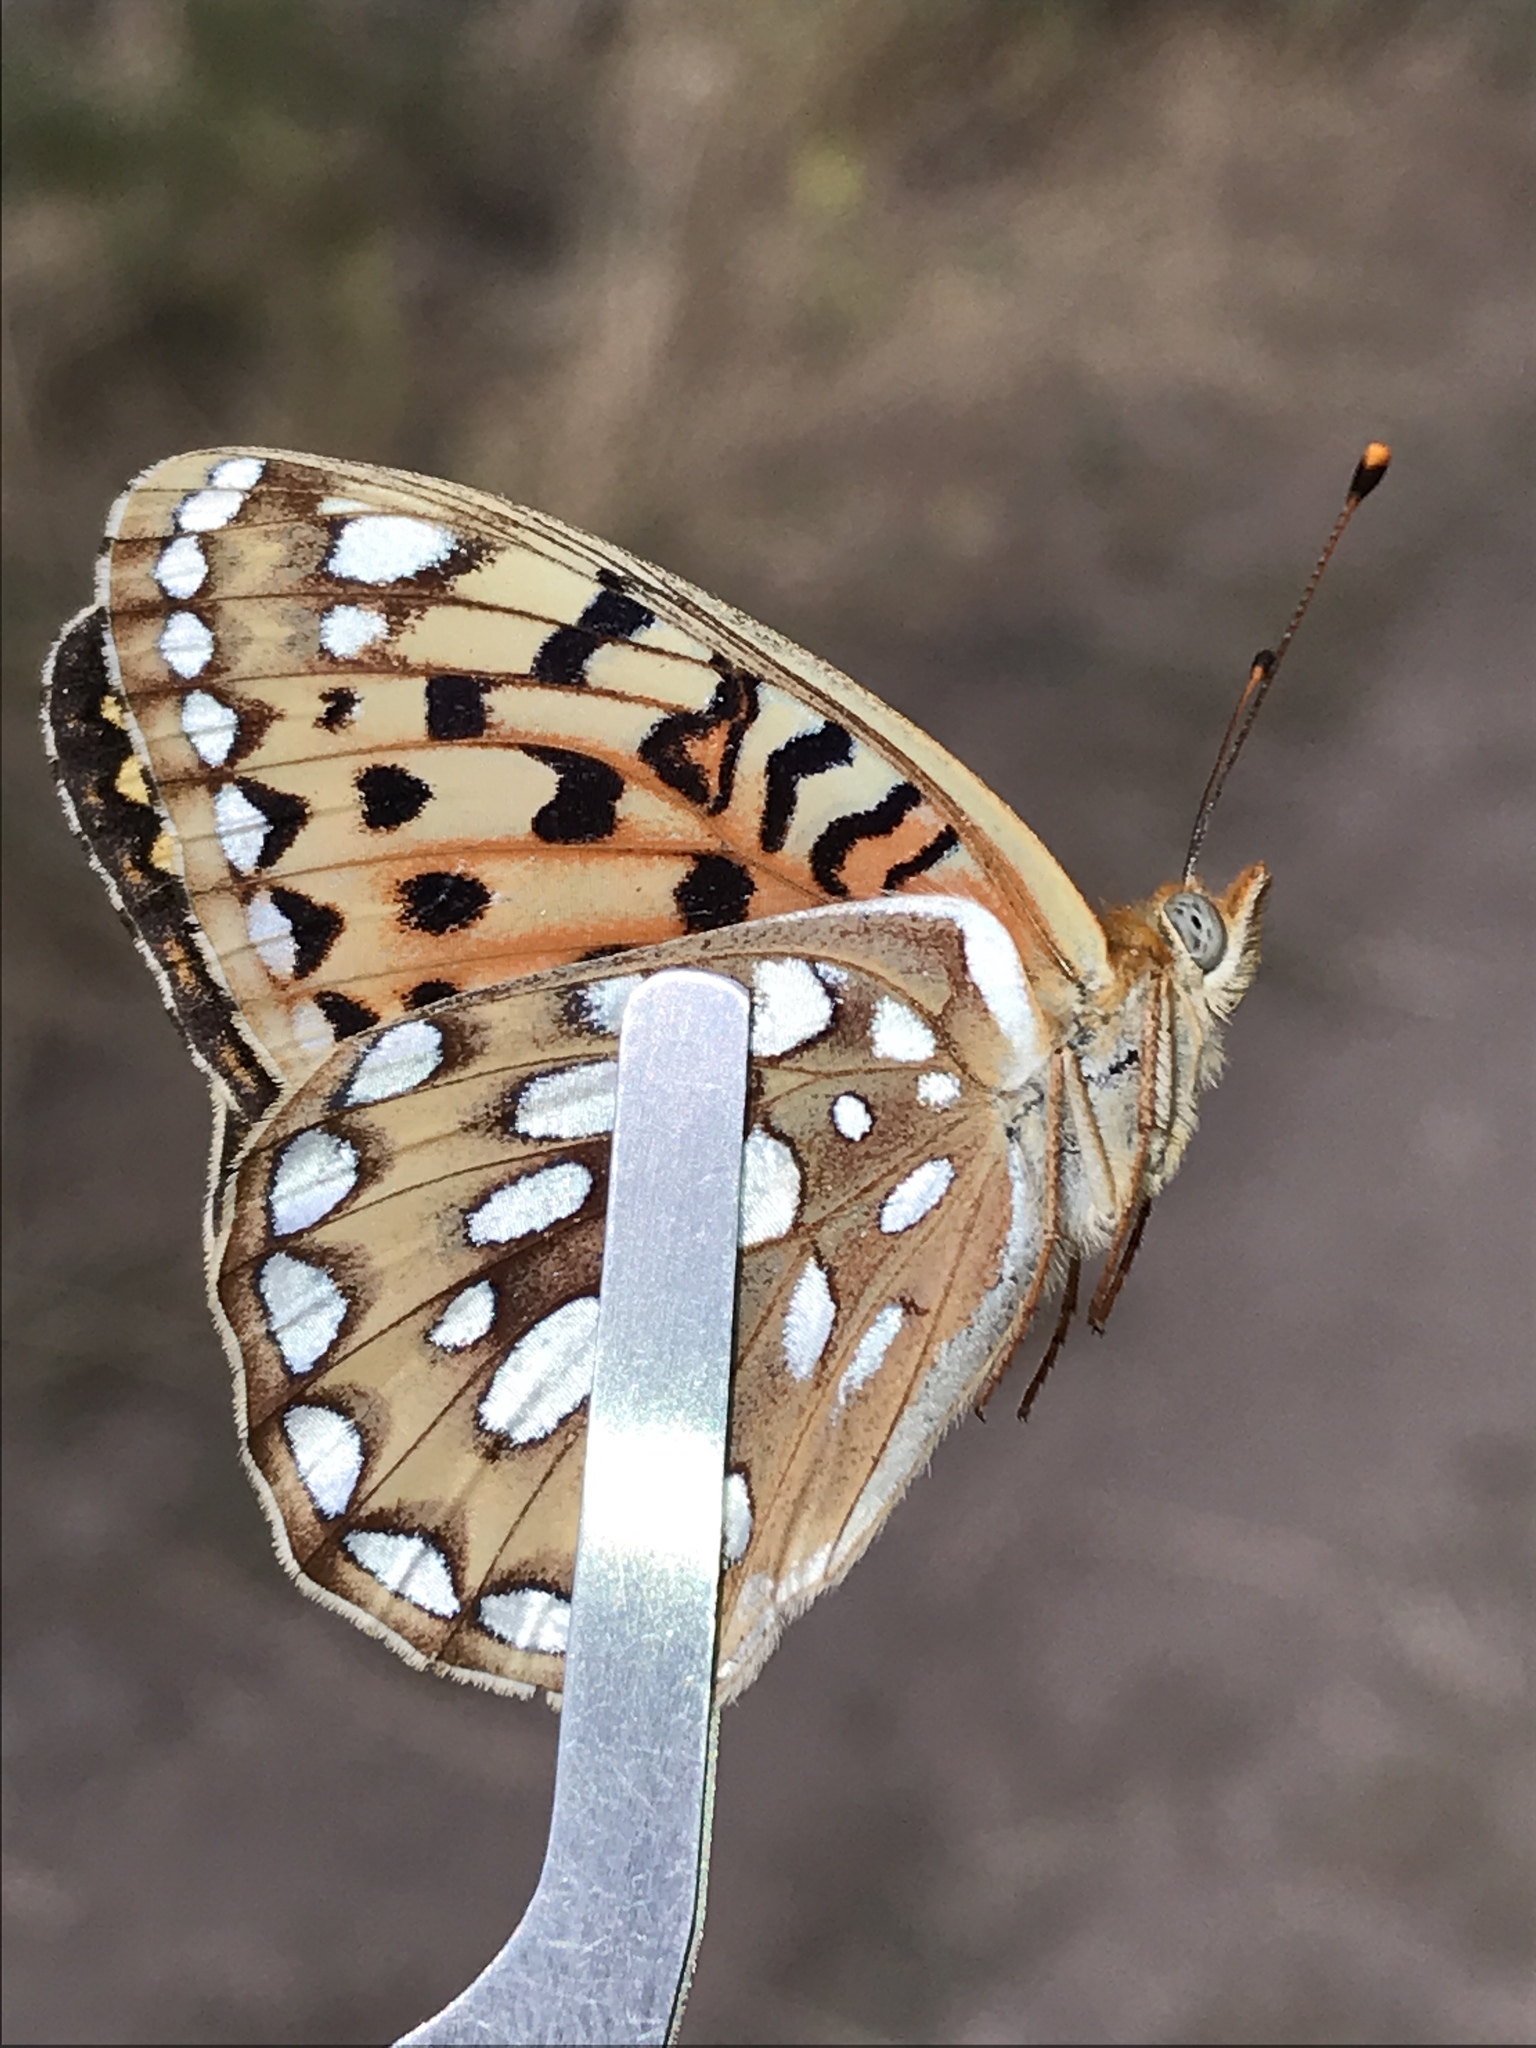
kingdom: Animalia
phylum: Arthropoda
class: Insecta
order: Lepidoptera
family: Nymphalidae
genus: Argynnis
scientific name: Argynnis coronis
